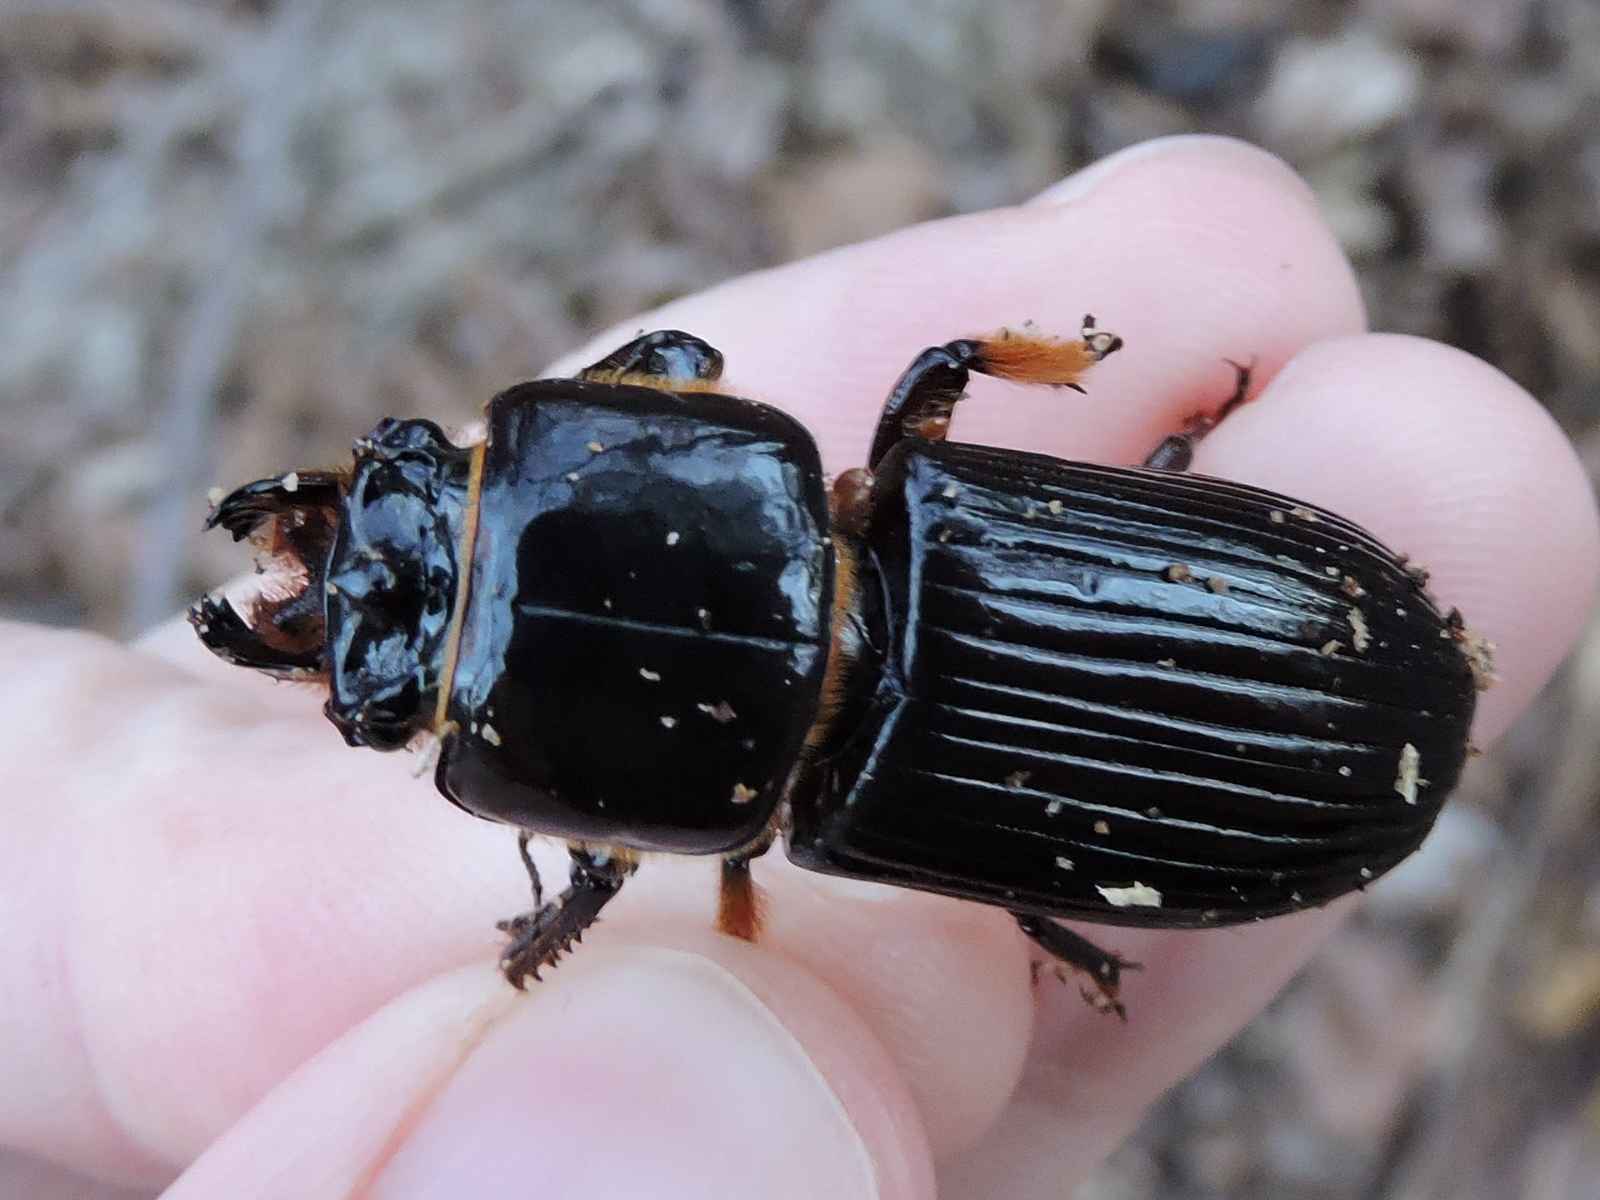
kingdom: Animalia
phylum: Arthropoda
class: Insecta
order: Coleoptera
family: Passalidae
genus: Odontotaenius
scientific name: Odontotaenius disjunctus
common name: Patent leather beetle
